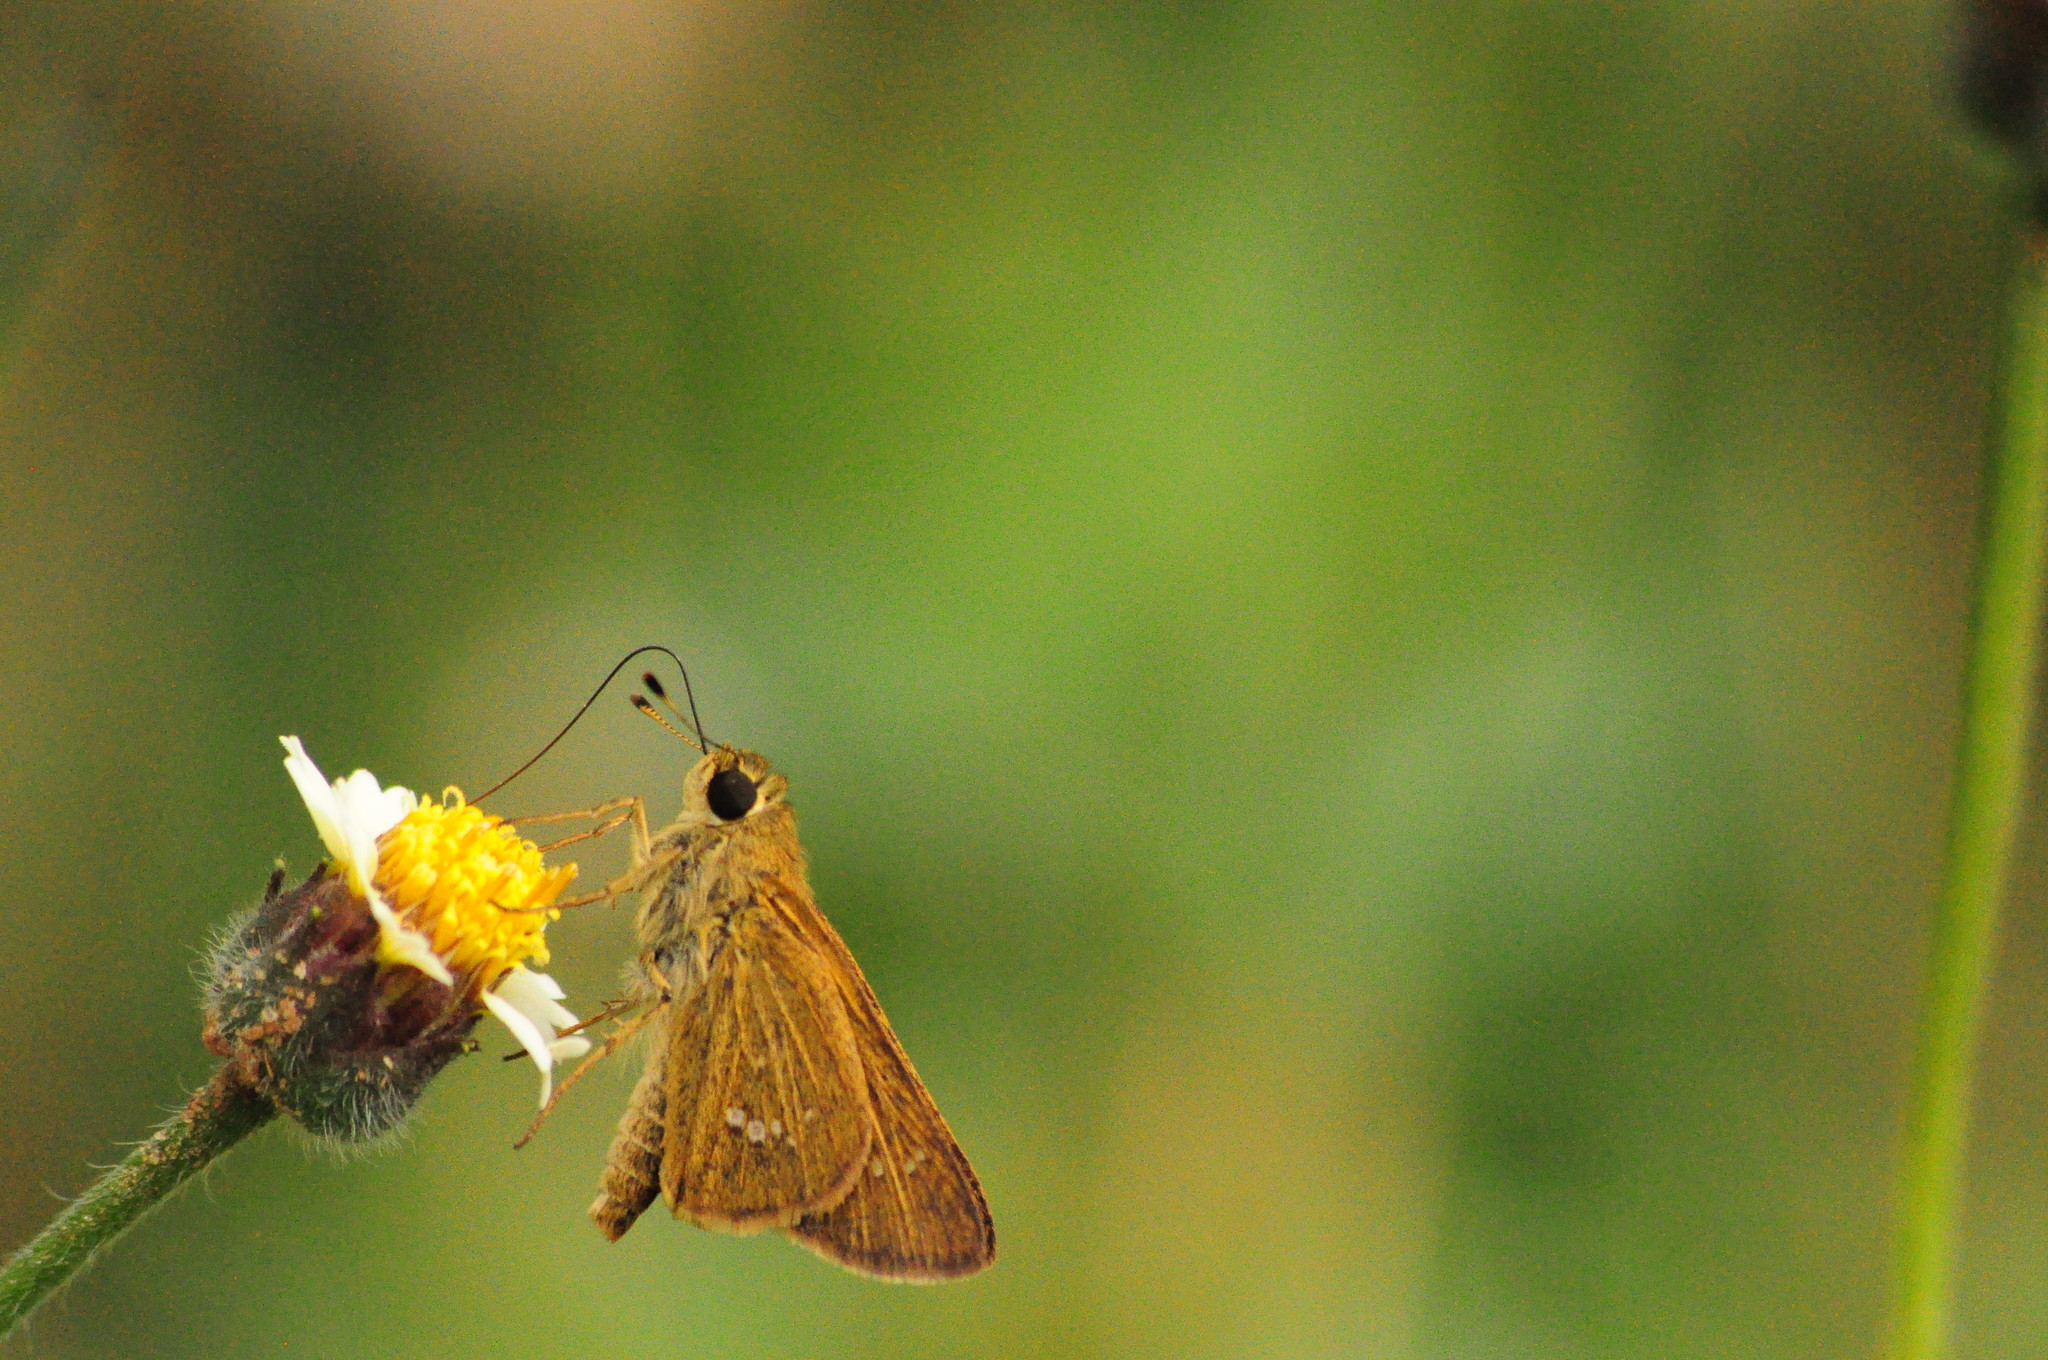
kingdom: Animalia
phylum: Arthropoda
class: Insecta
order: Lepidoptera
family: Hesperiidae
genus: Parnara
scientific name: Parnara naso
